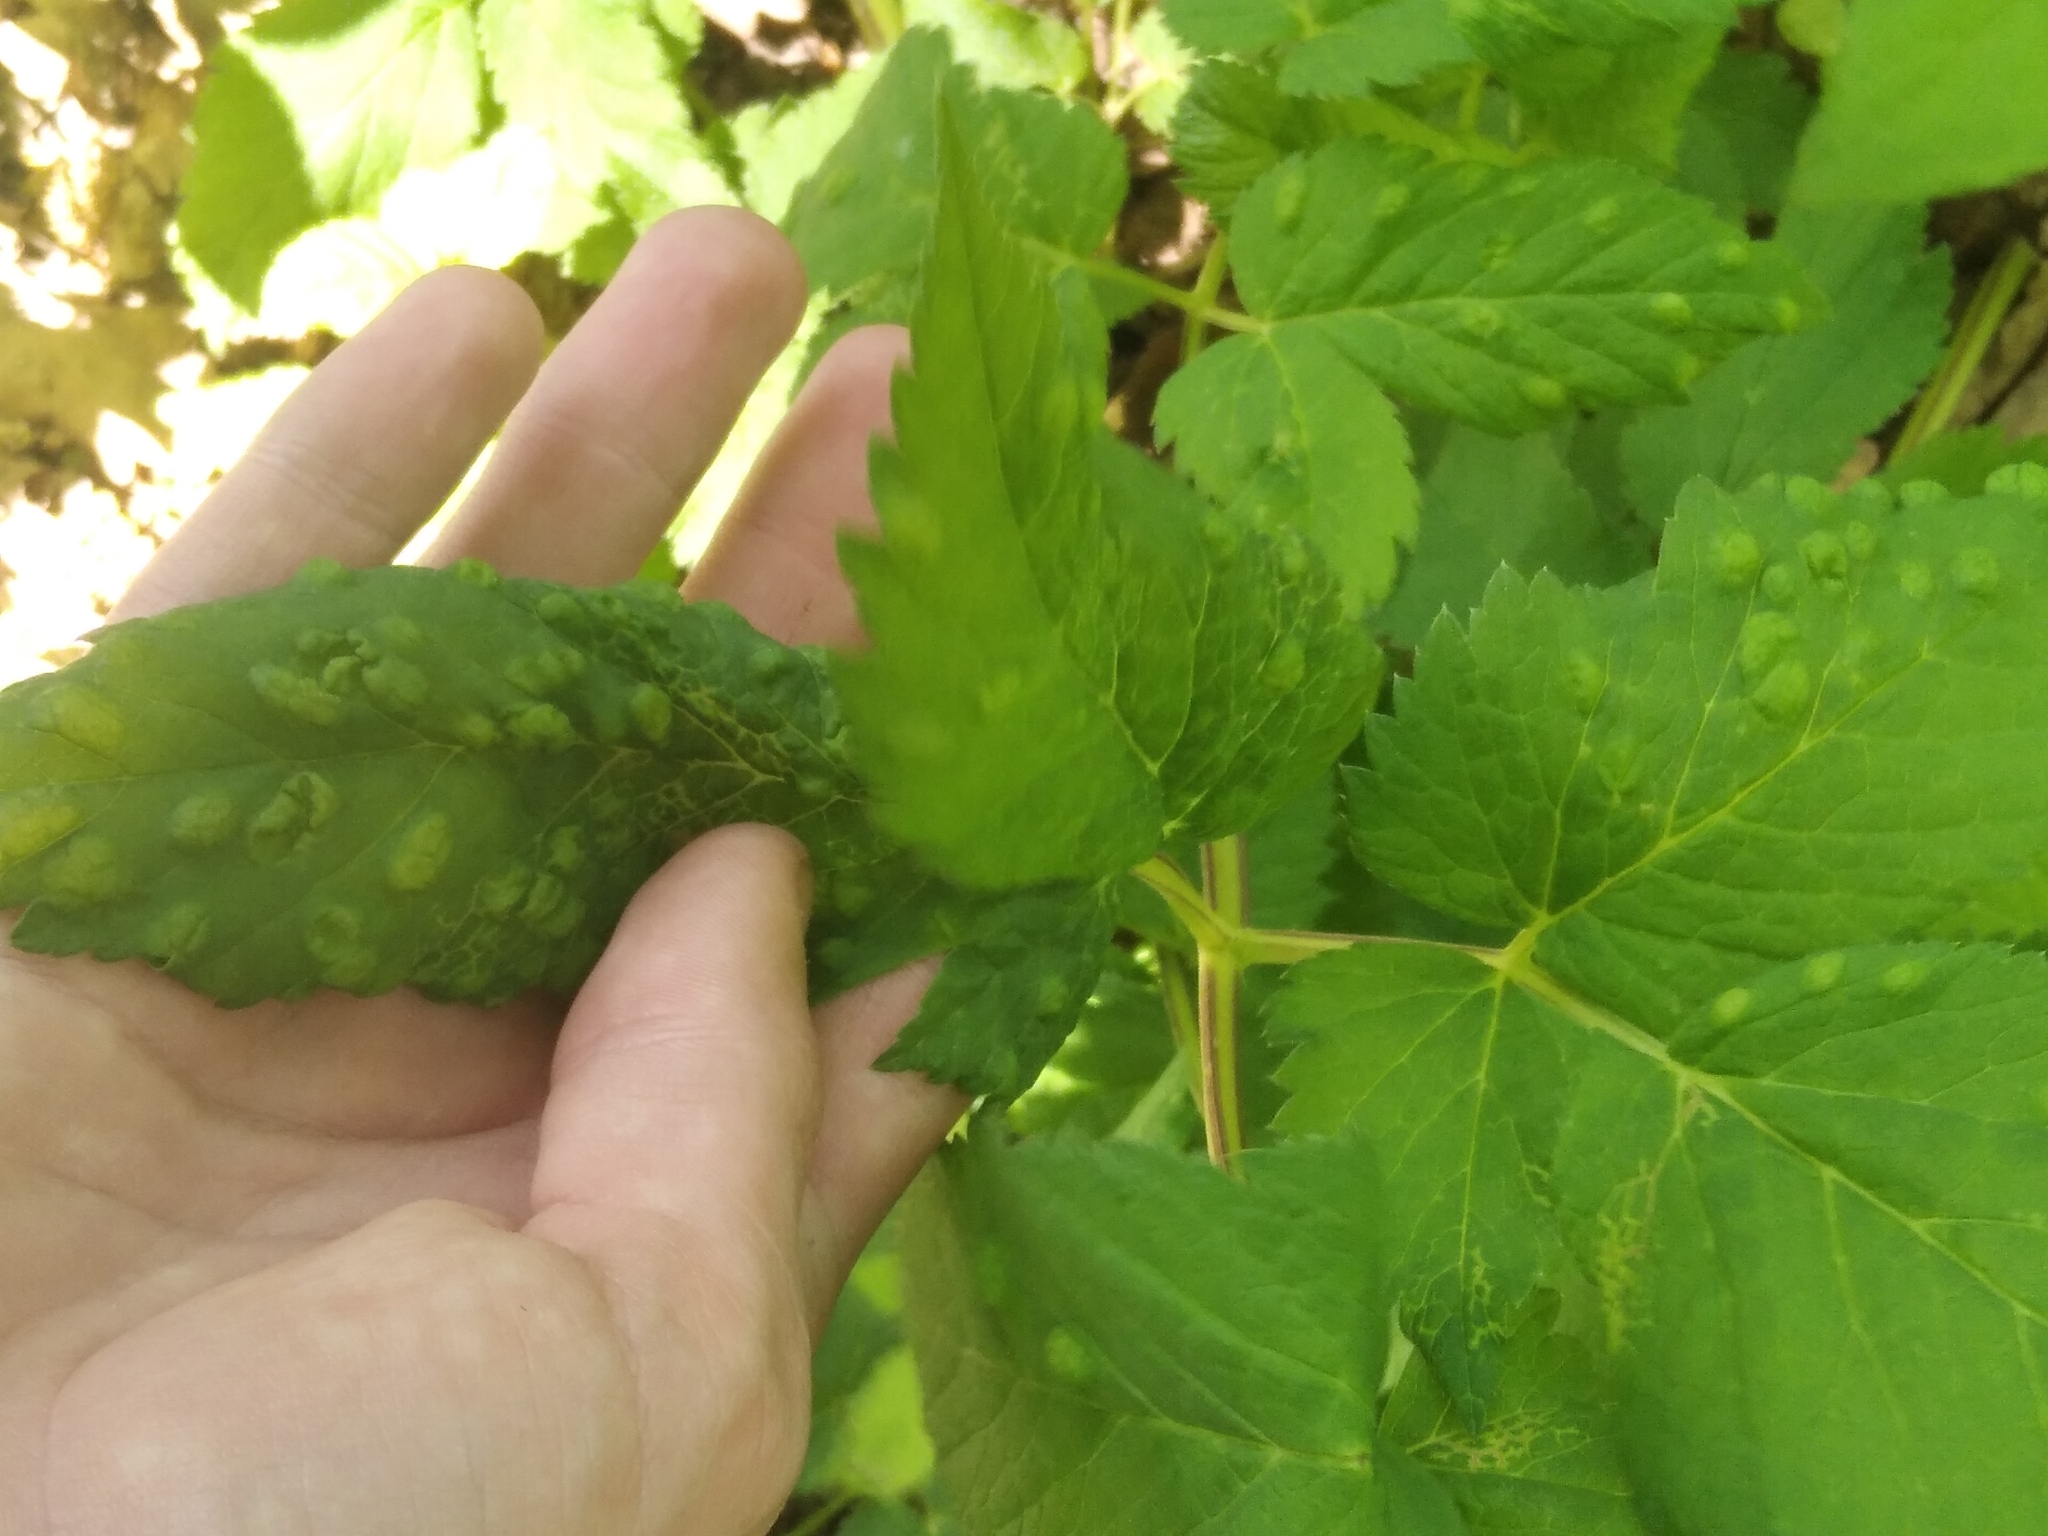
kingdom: Animalia
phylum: Arthropoda
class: Insecta
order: Hemiptera
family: Triozidae
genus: Trioza
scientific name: Trioza flavipennis
